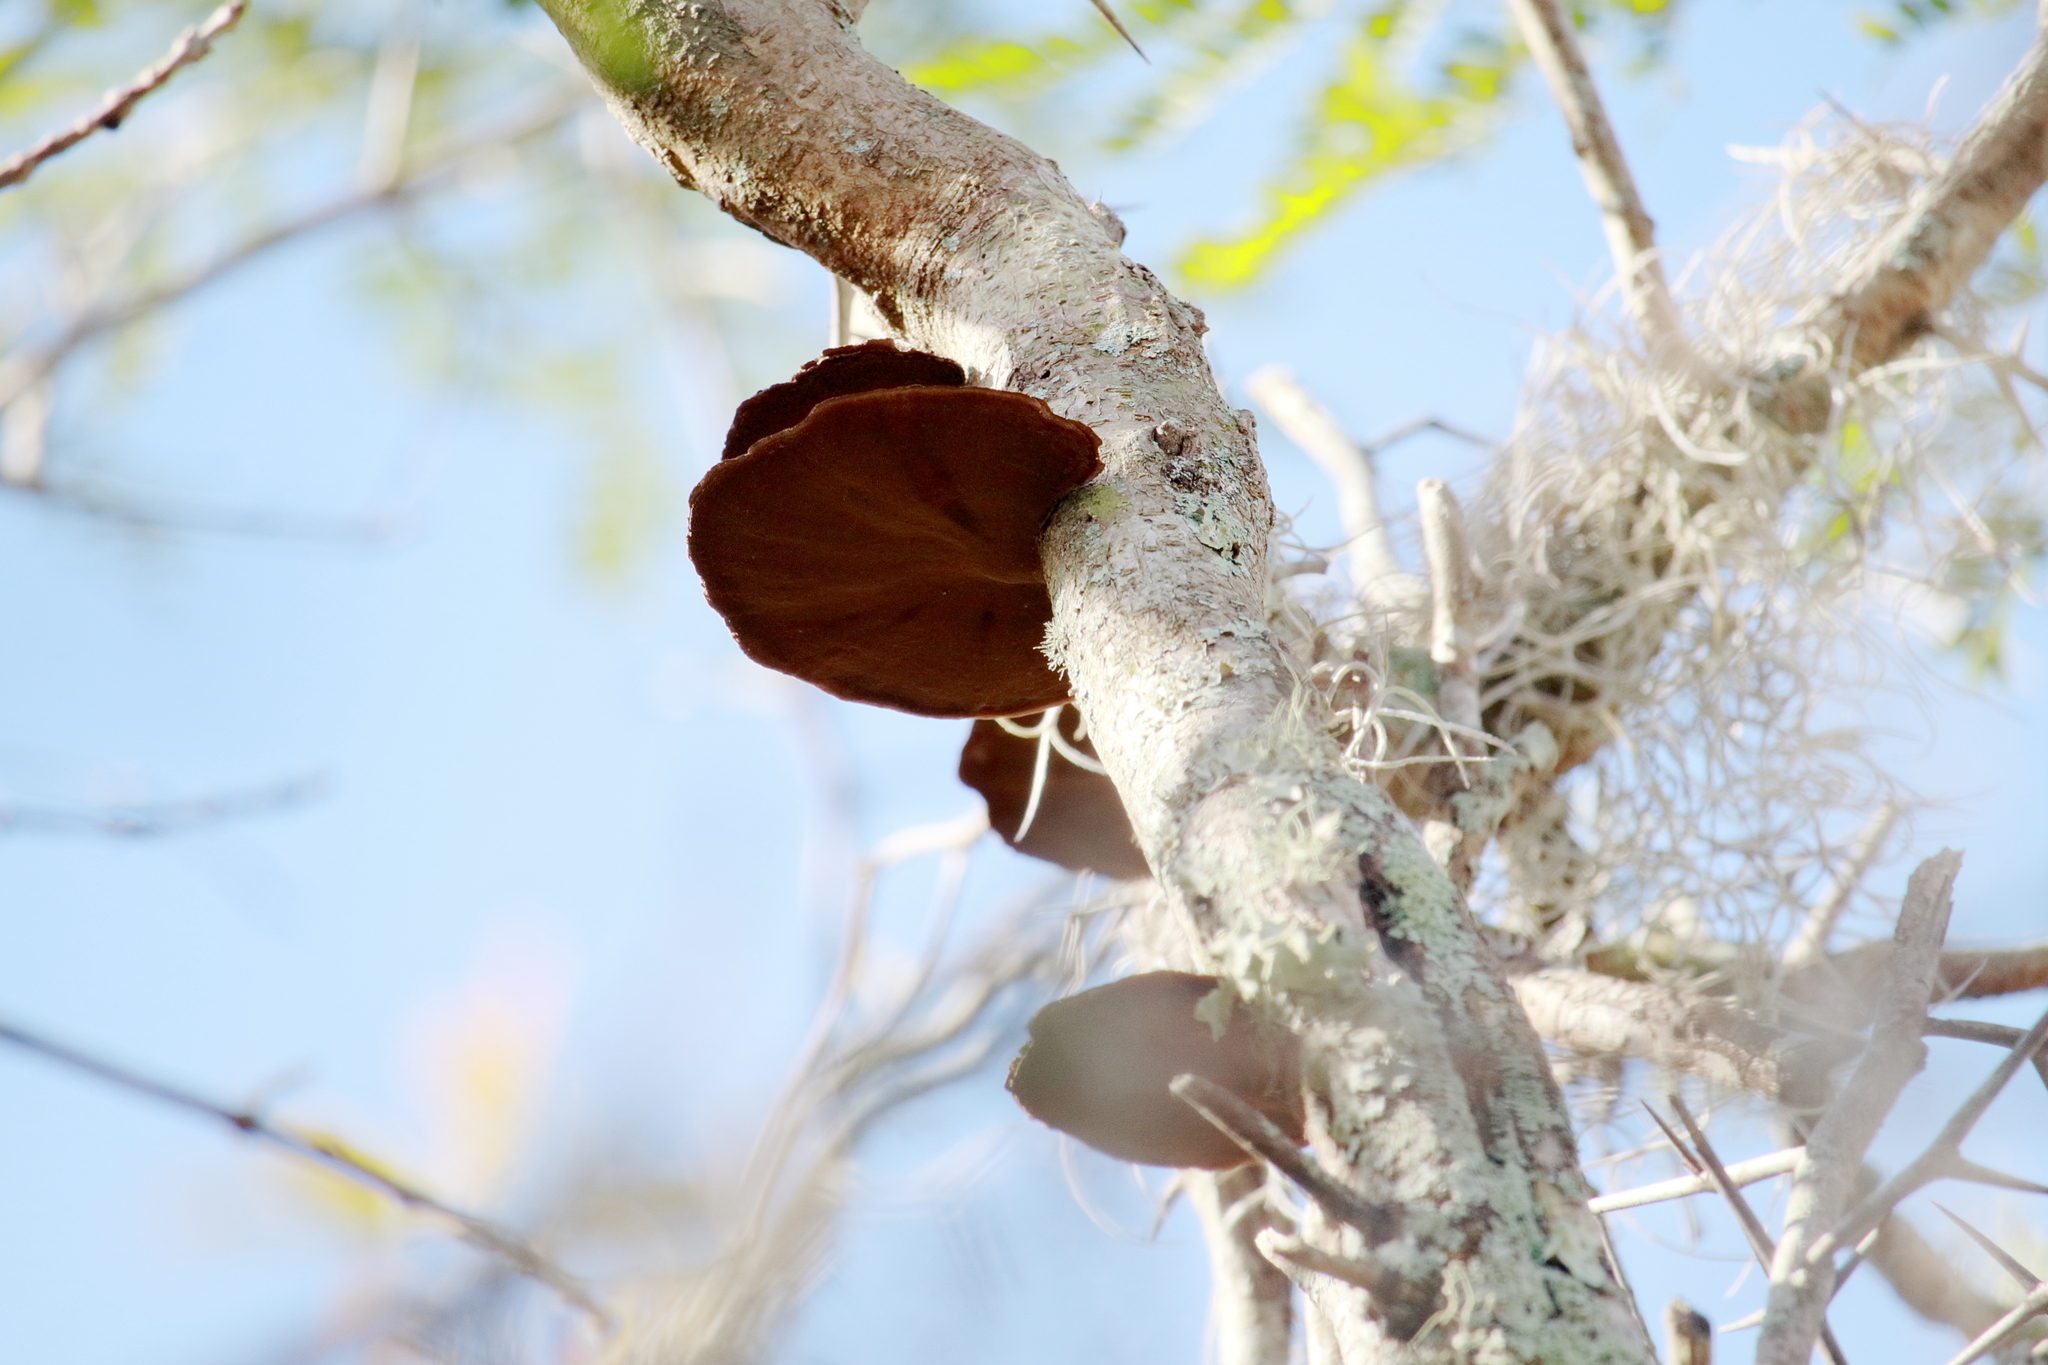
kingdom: Fungi
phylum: Basidiomycota
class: Agaricomycetes
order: Polyporales
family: Cerrenaceae
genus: Cerrena
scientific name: Cerrena hydnoides
